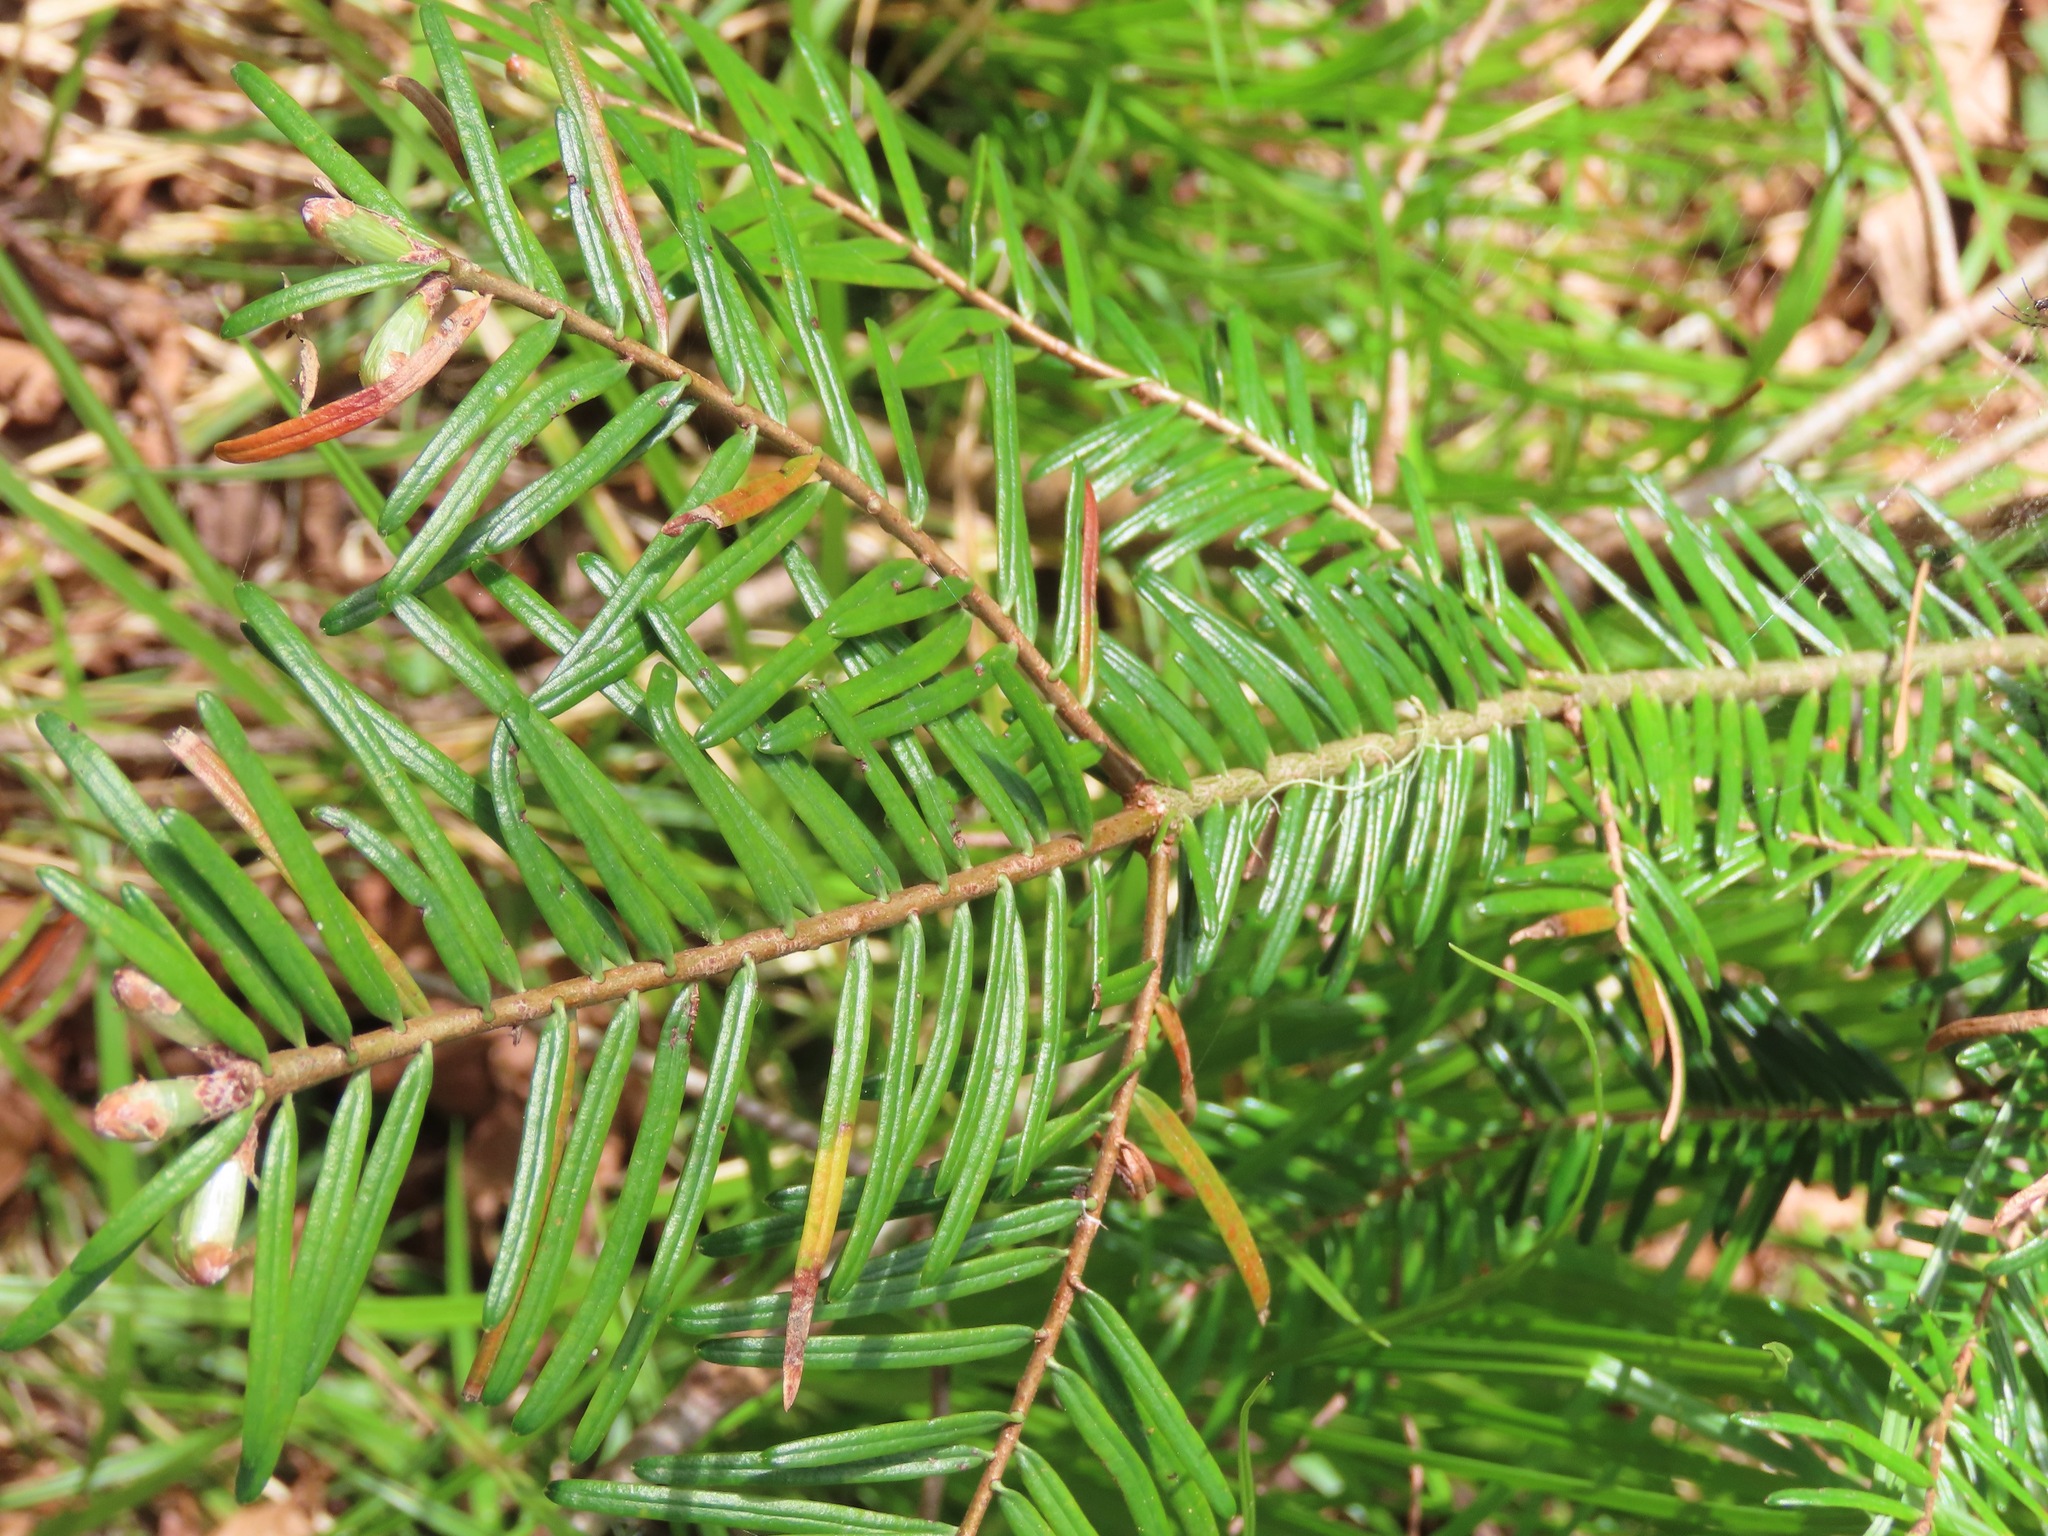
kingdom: Plantae
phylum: Tracheophyta
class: Pinopsida
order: Pinales
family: Pinaceae
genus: Abies
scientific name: Abies grandis
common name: Giant fir
